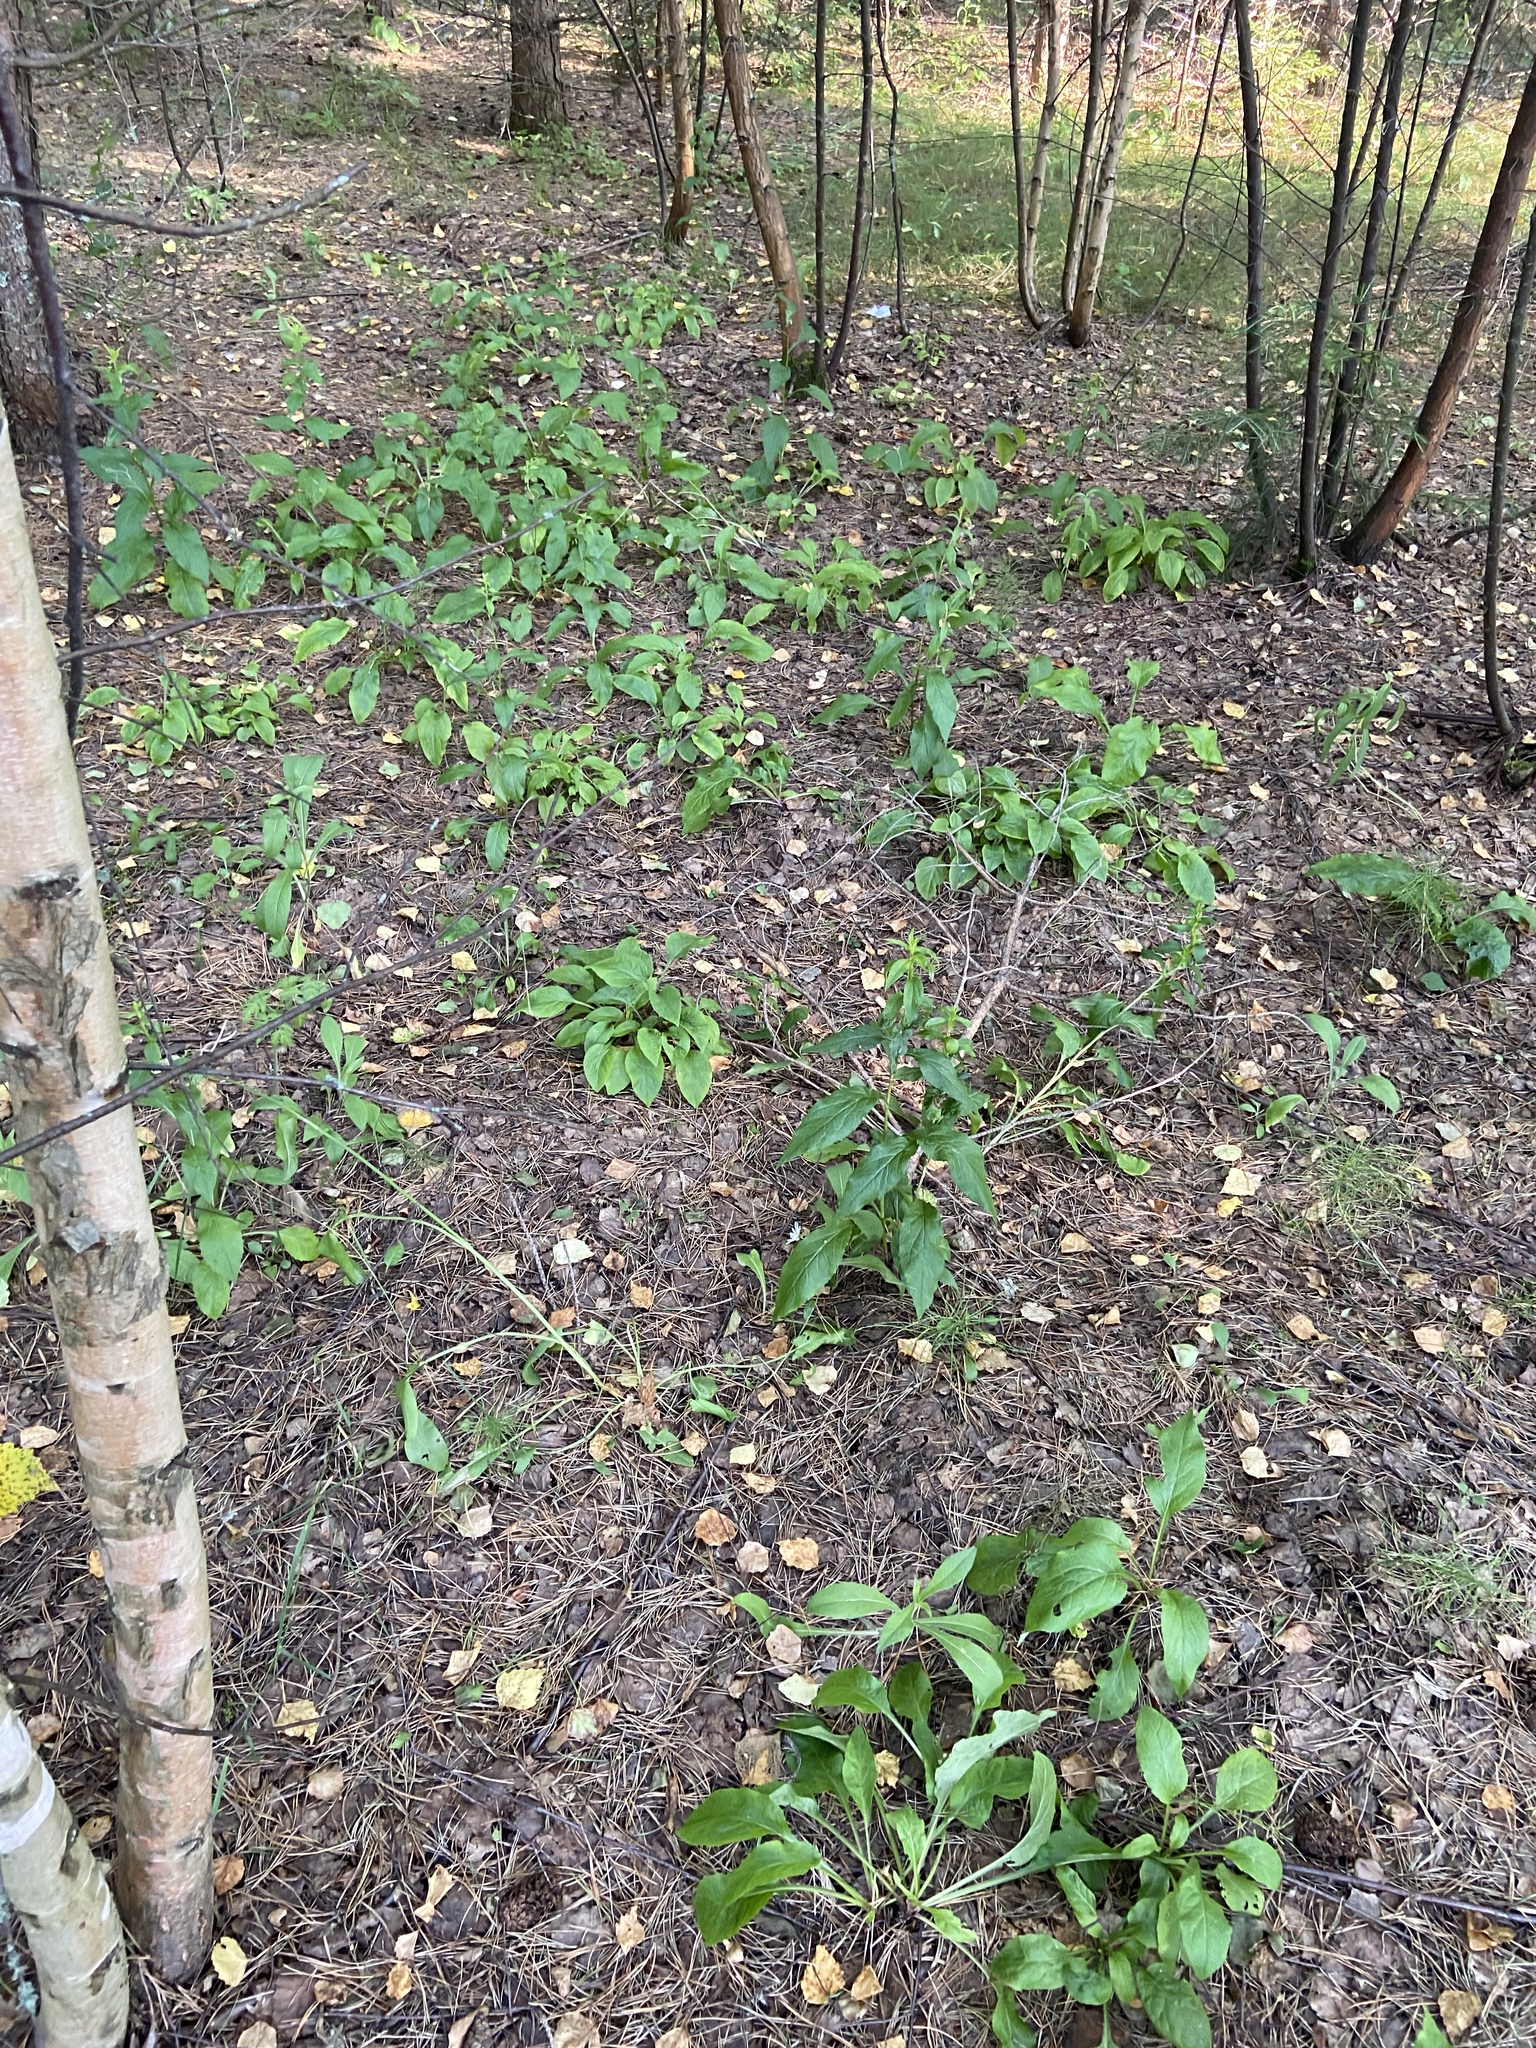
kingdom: Plantae
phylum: Tracheophyta
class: Magnoliopsida
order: Asterales
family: Asteraceae
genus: Solidago
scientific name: Solidago virgaurea
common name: Goldenrod
